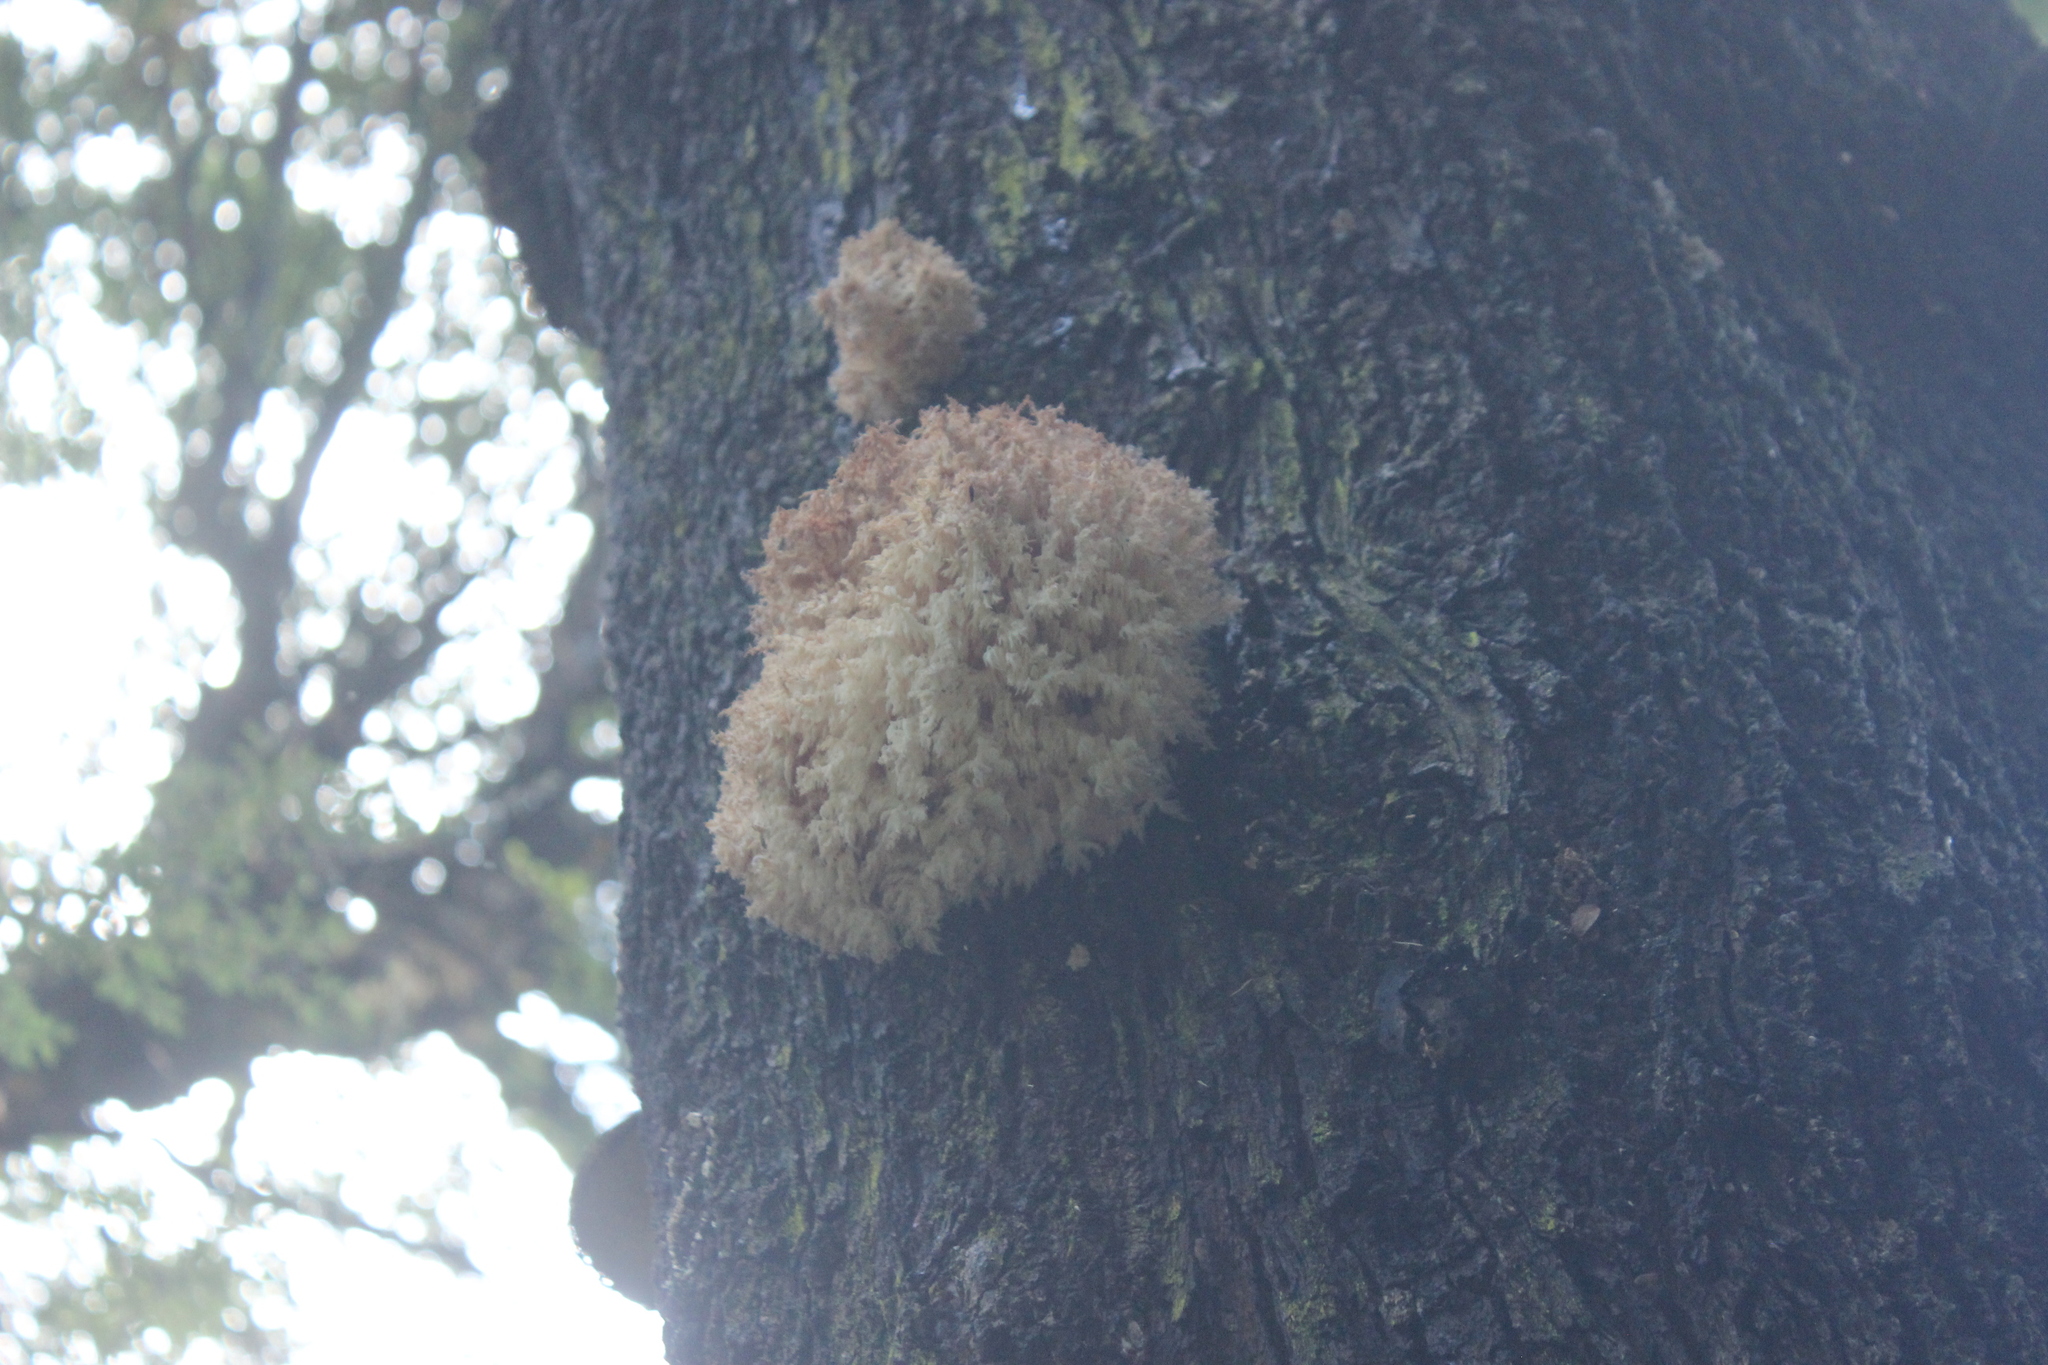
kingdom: Fungi
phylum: Basidiomycota
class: Agaricomycetes
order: Russulales
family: Hericiaceae
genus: Hericium
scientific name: Hericium novae-zealandiae
